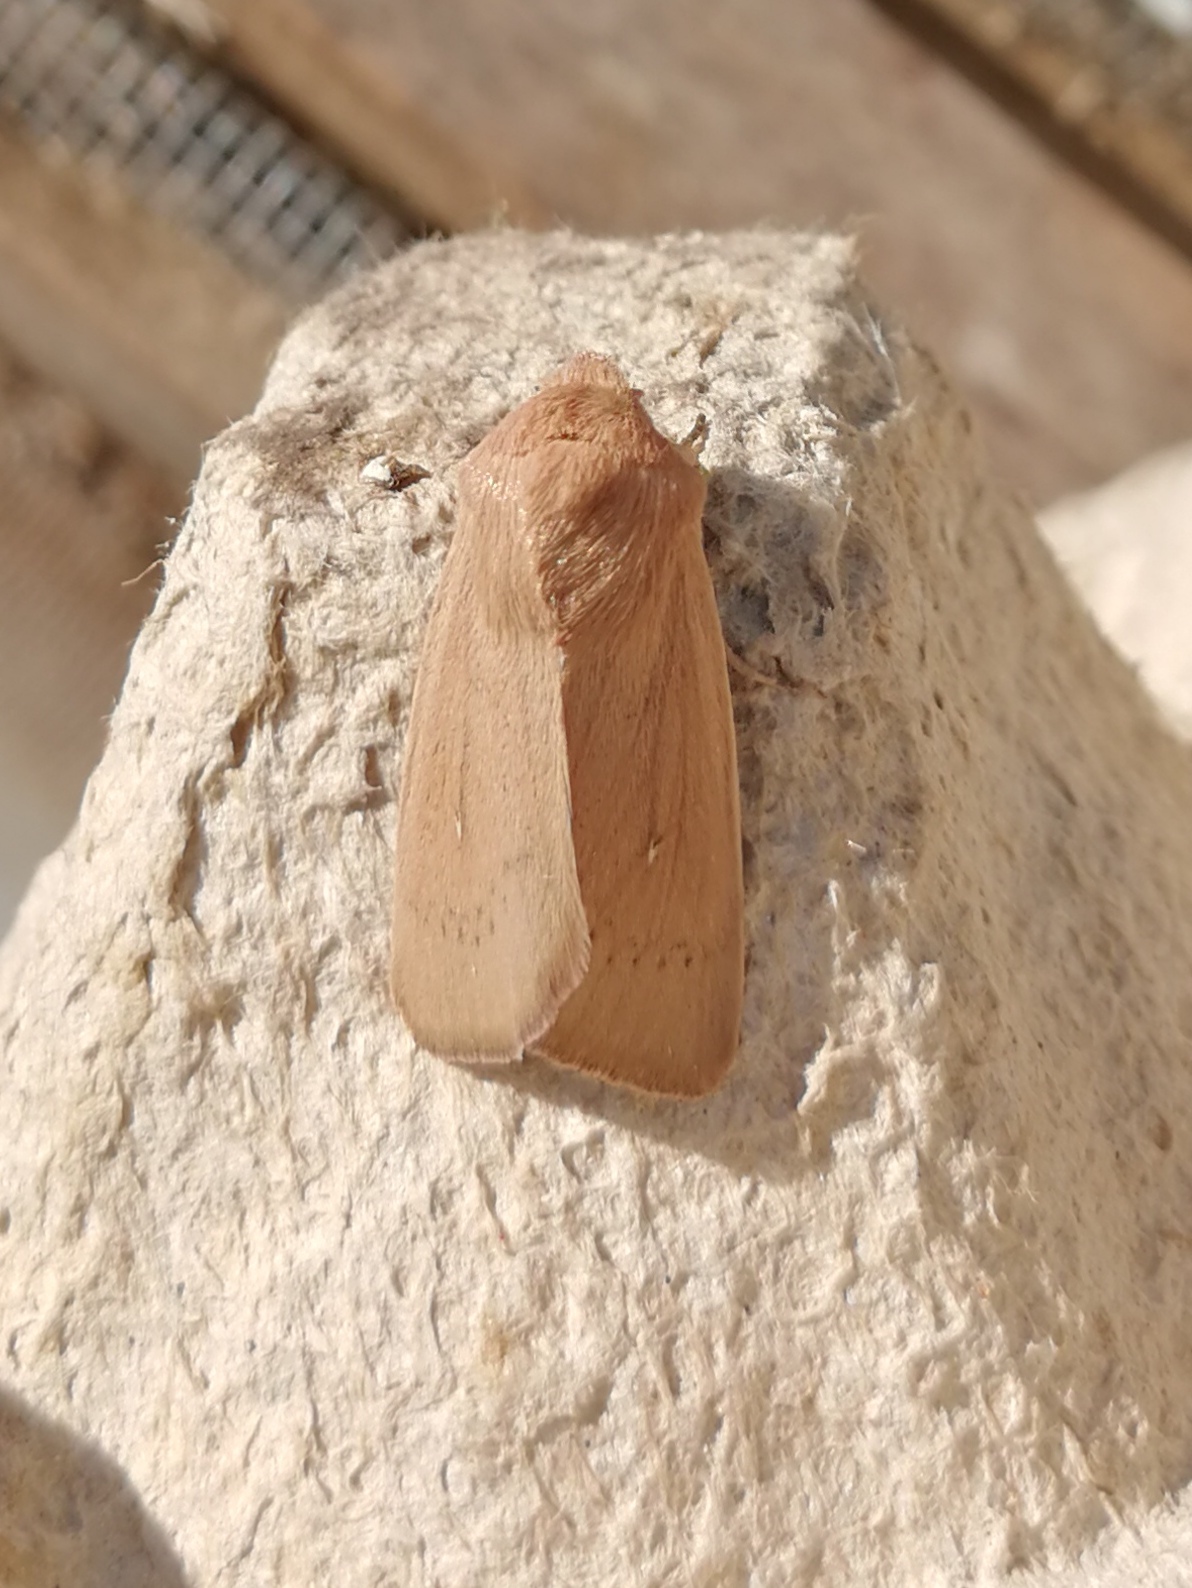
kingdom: Animalia
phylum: Arthropoda
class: Insecta
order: Lepidoptera
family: Noctuidae
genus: Mythimna
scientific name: Mythimna sicula
